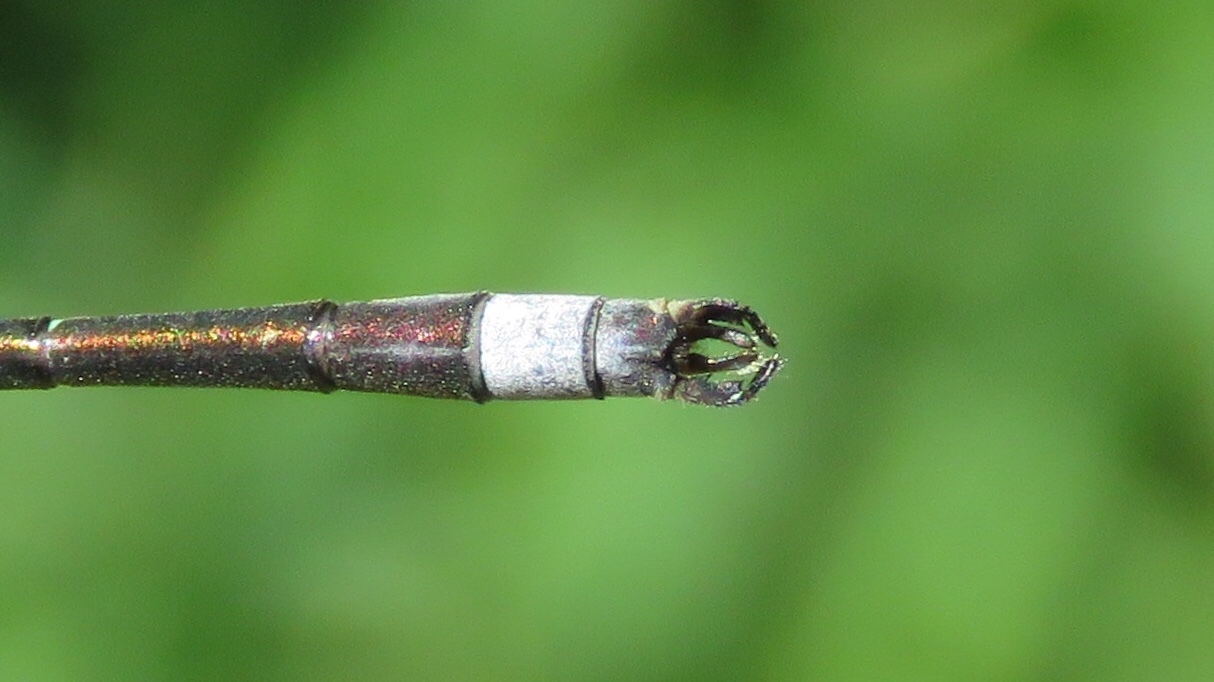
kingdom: Animalia
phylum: Arthropoda
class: Insecta
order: Odonata
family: Lestidae
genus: Lestes
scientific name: Lestes disjunctus
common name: Northern spreadwing
